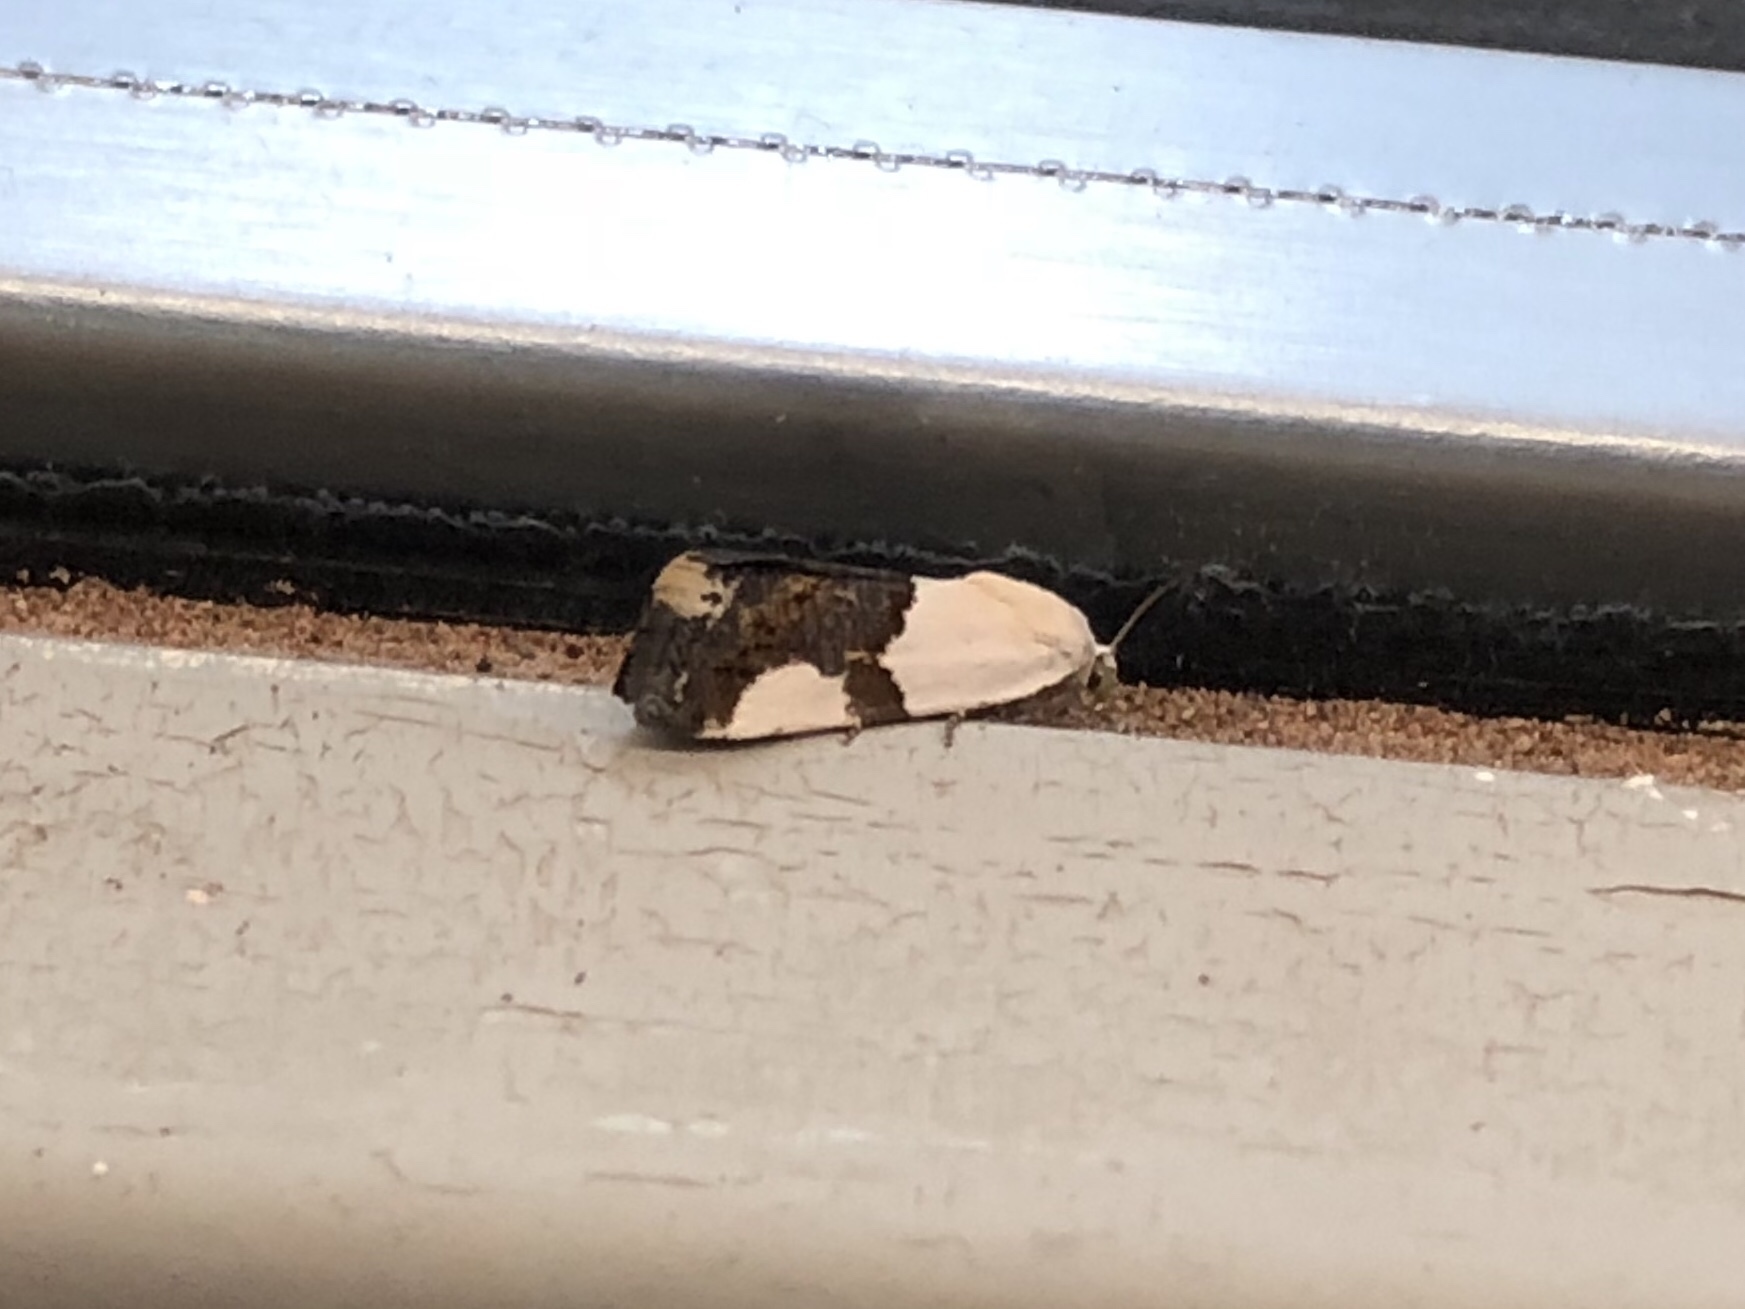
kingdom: Animalia
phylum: Arthropoda
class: Insecta
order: Lepidoptera
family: Noctuidae
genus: Acontia
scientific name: Acontia cuta
